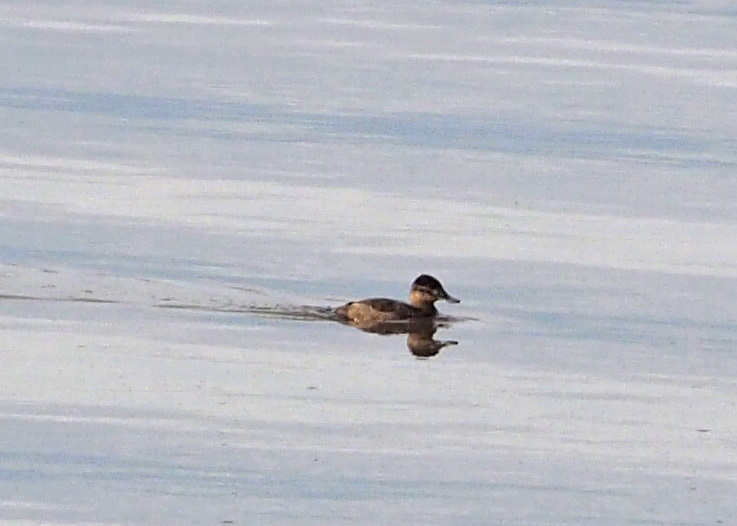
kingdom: Animalia
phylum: Chordata
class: Aves
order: Anseriformes
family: Anatidae
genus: Oxyura
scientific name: Oxyura jamaicensis
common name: Ruddy duck
